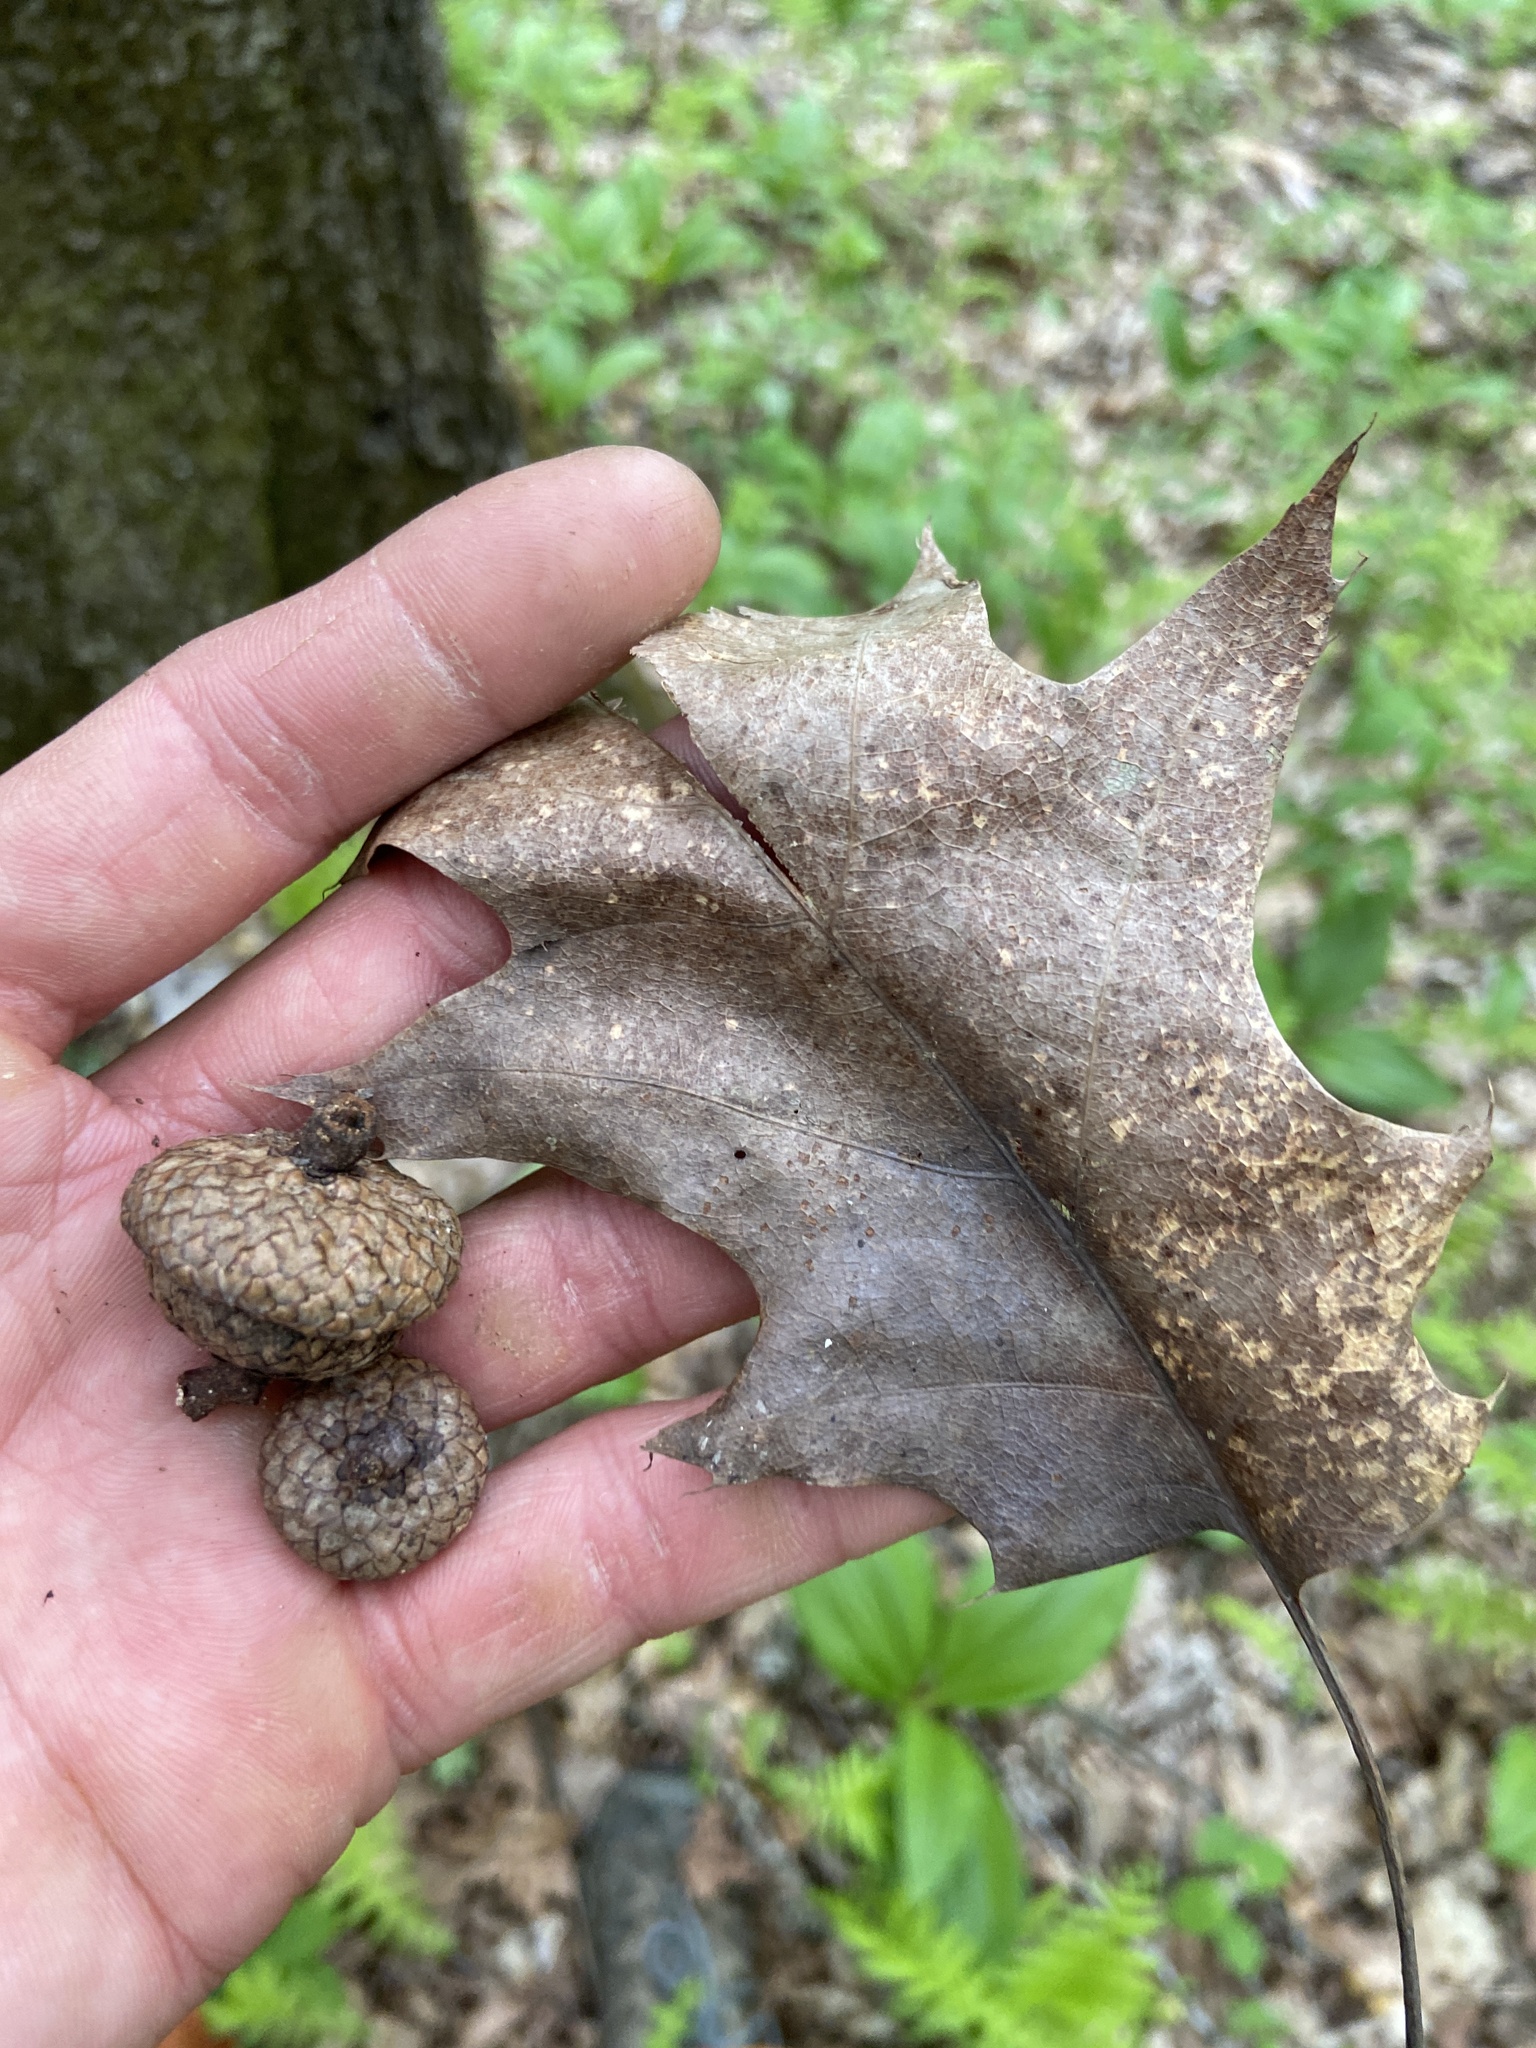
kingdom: Plantae
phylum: Tracheophyta
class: Magnoliopsida
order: Fagales
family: Fagaceae
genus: Quercus
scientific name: Quercus rubra
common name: Red oak
